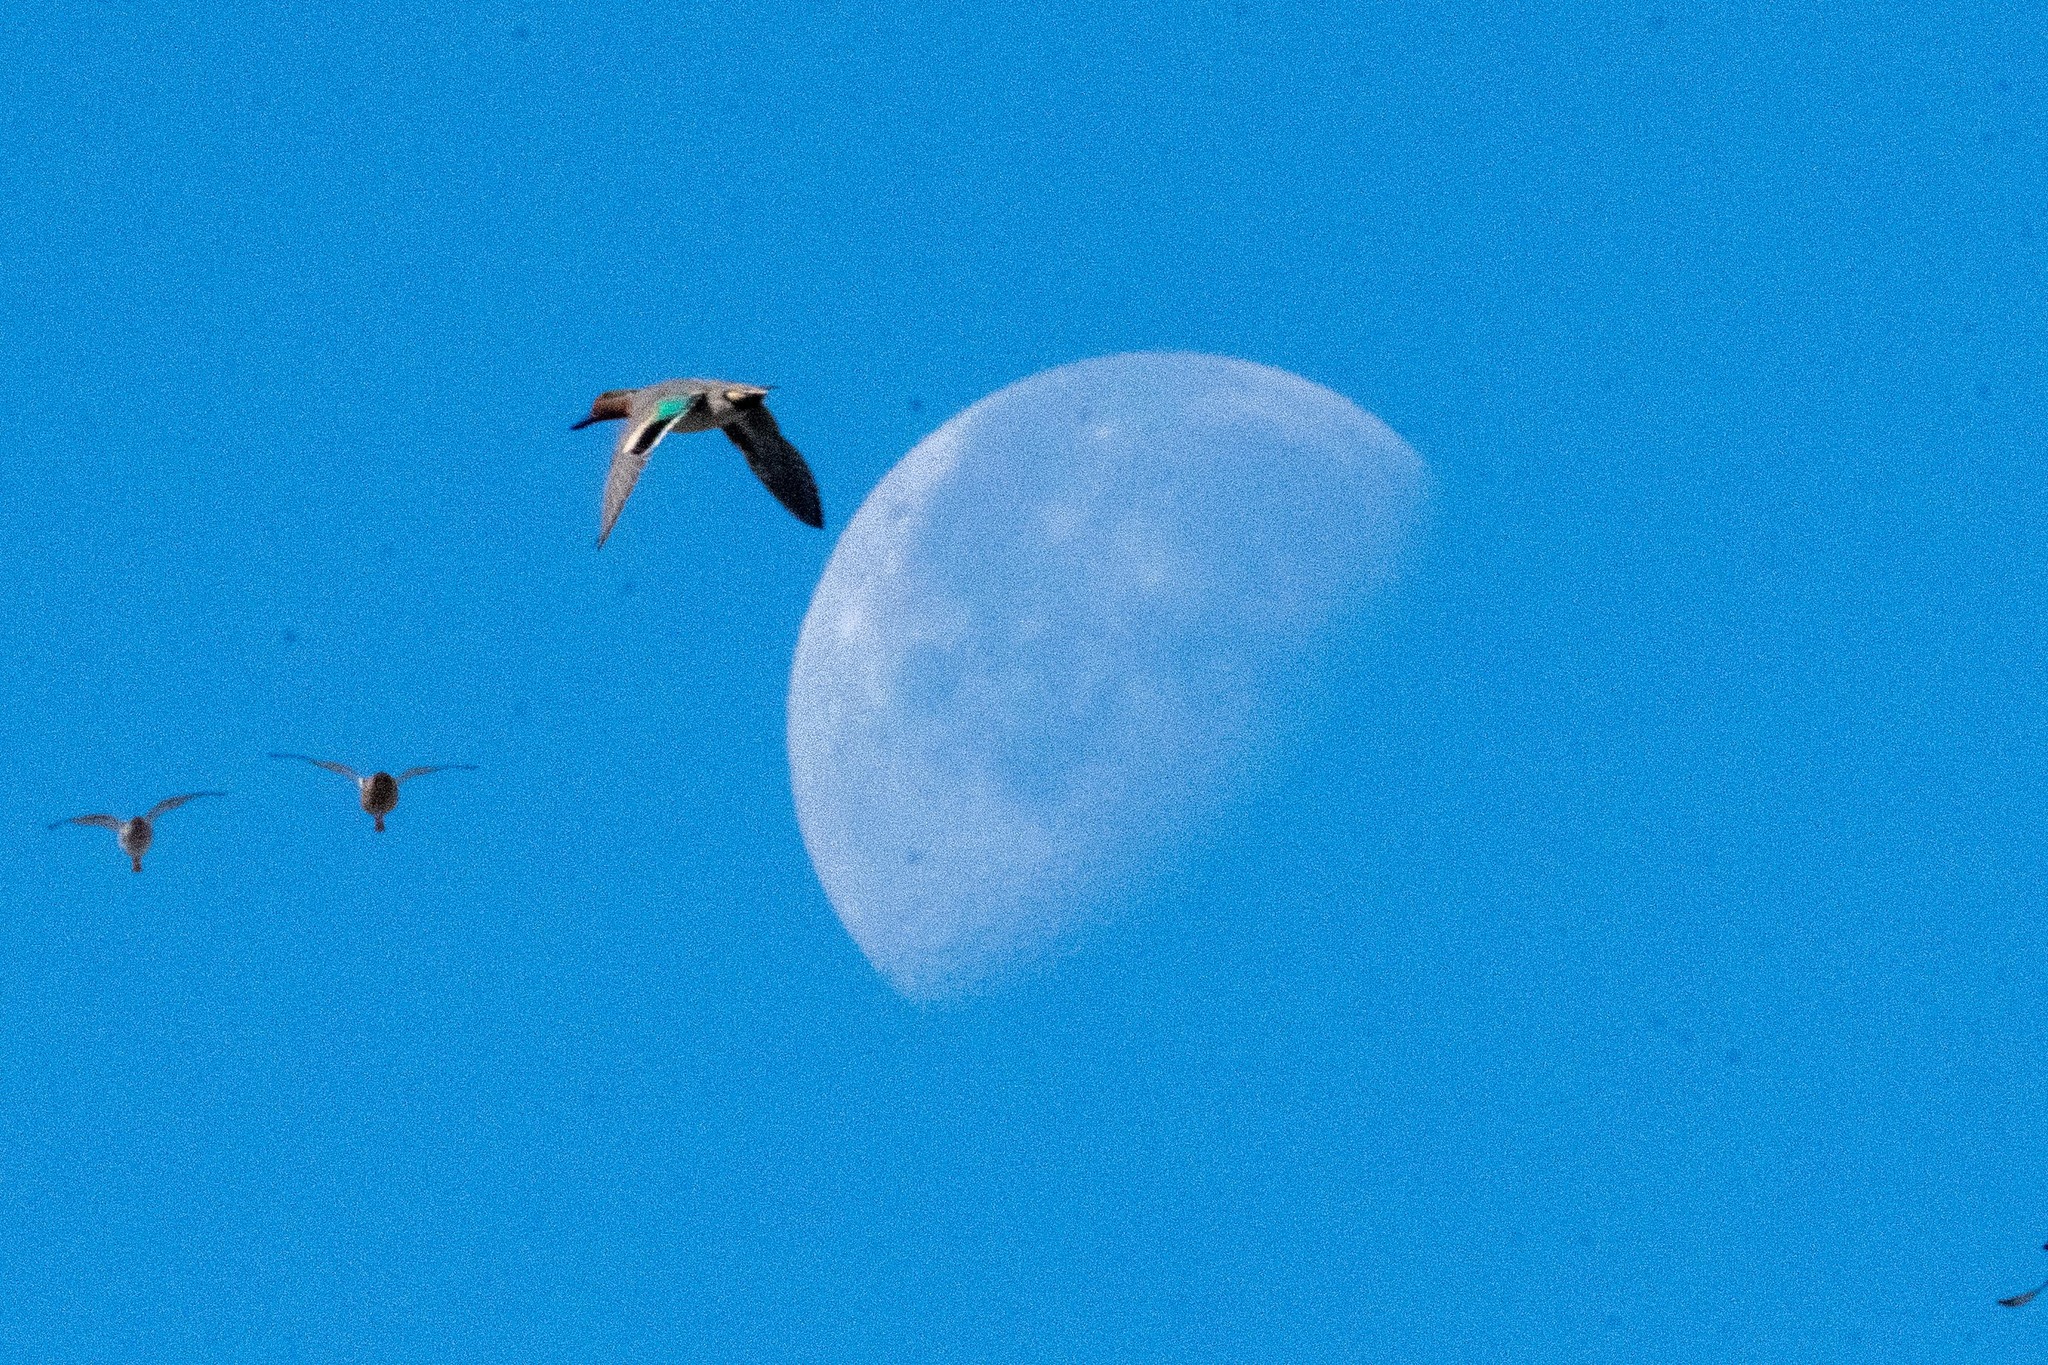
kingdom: Animalia
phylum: Chordata
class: Aves
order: Anseriformes
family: Anatidae
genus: Anas
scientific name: Anas crecca
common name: Eurasian teal
